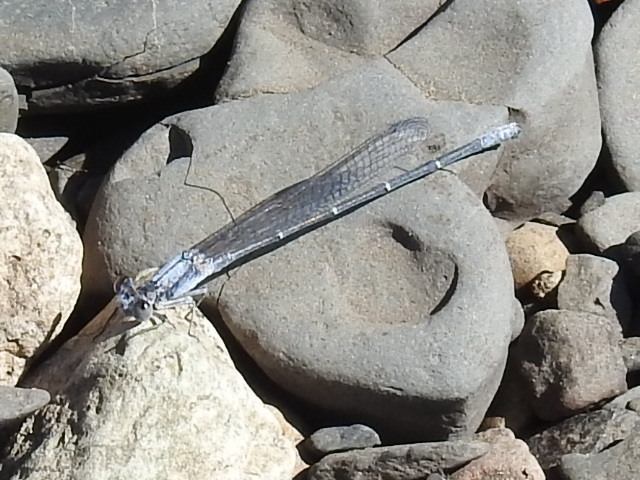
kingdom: Animalia
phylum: Arthropoda
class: Insecta
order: Odonata
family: Coenagrionidae
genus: Argia
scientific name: Argia moesta
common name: Powdered dancer
